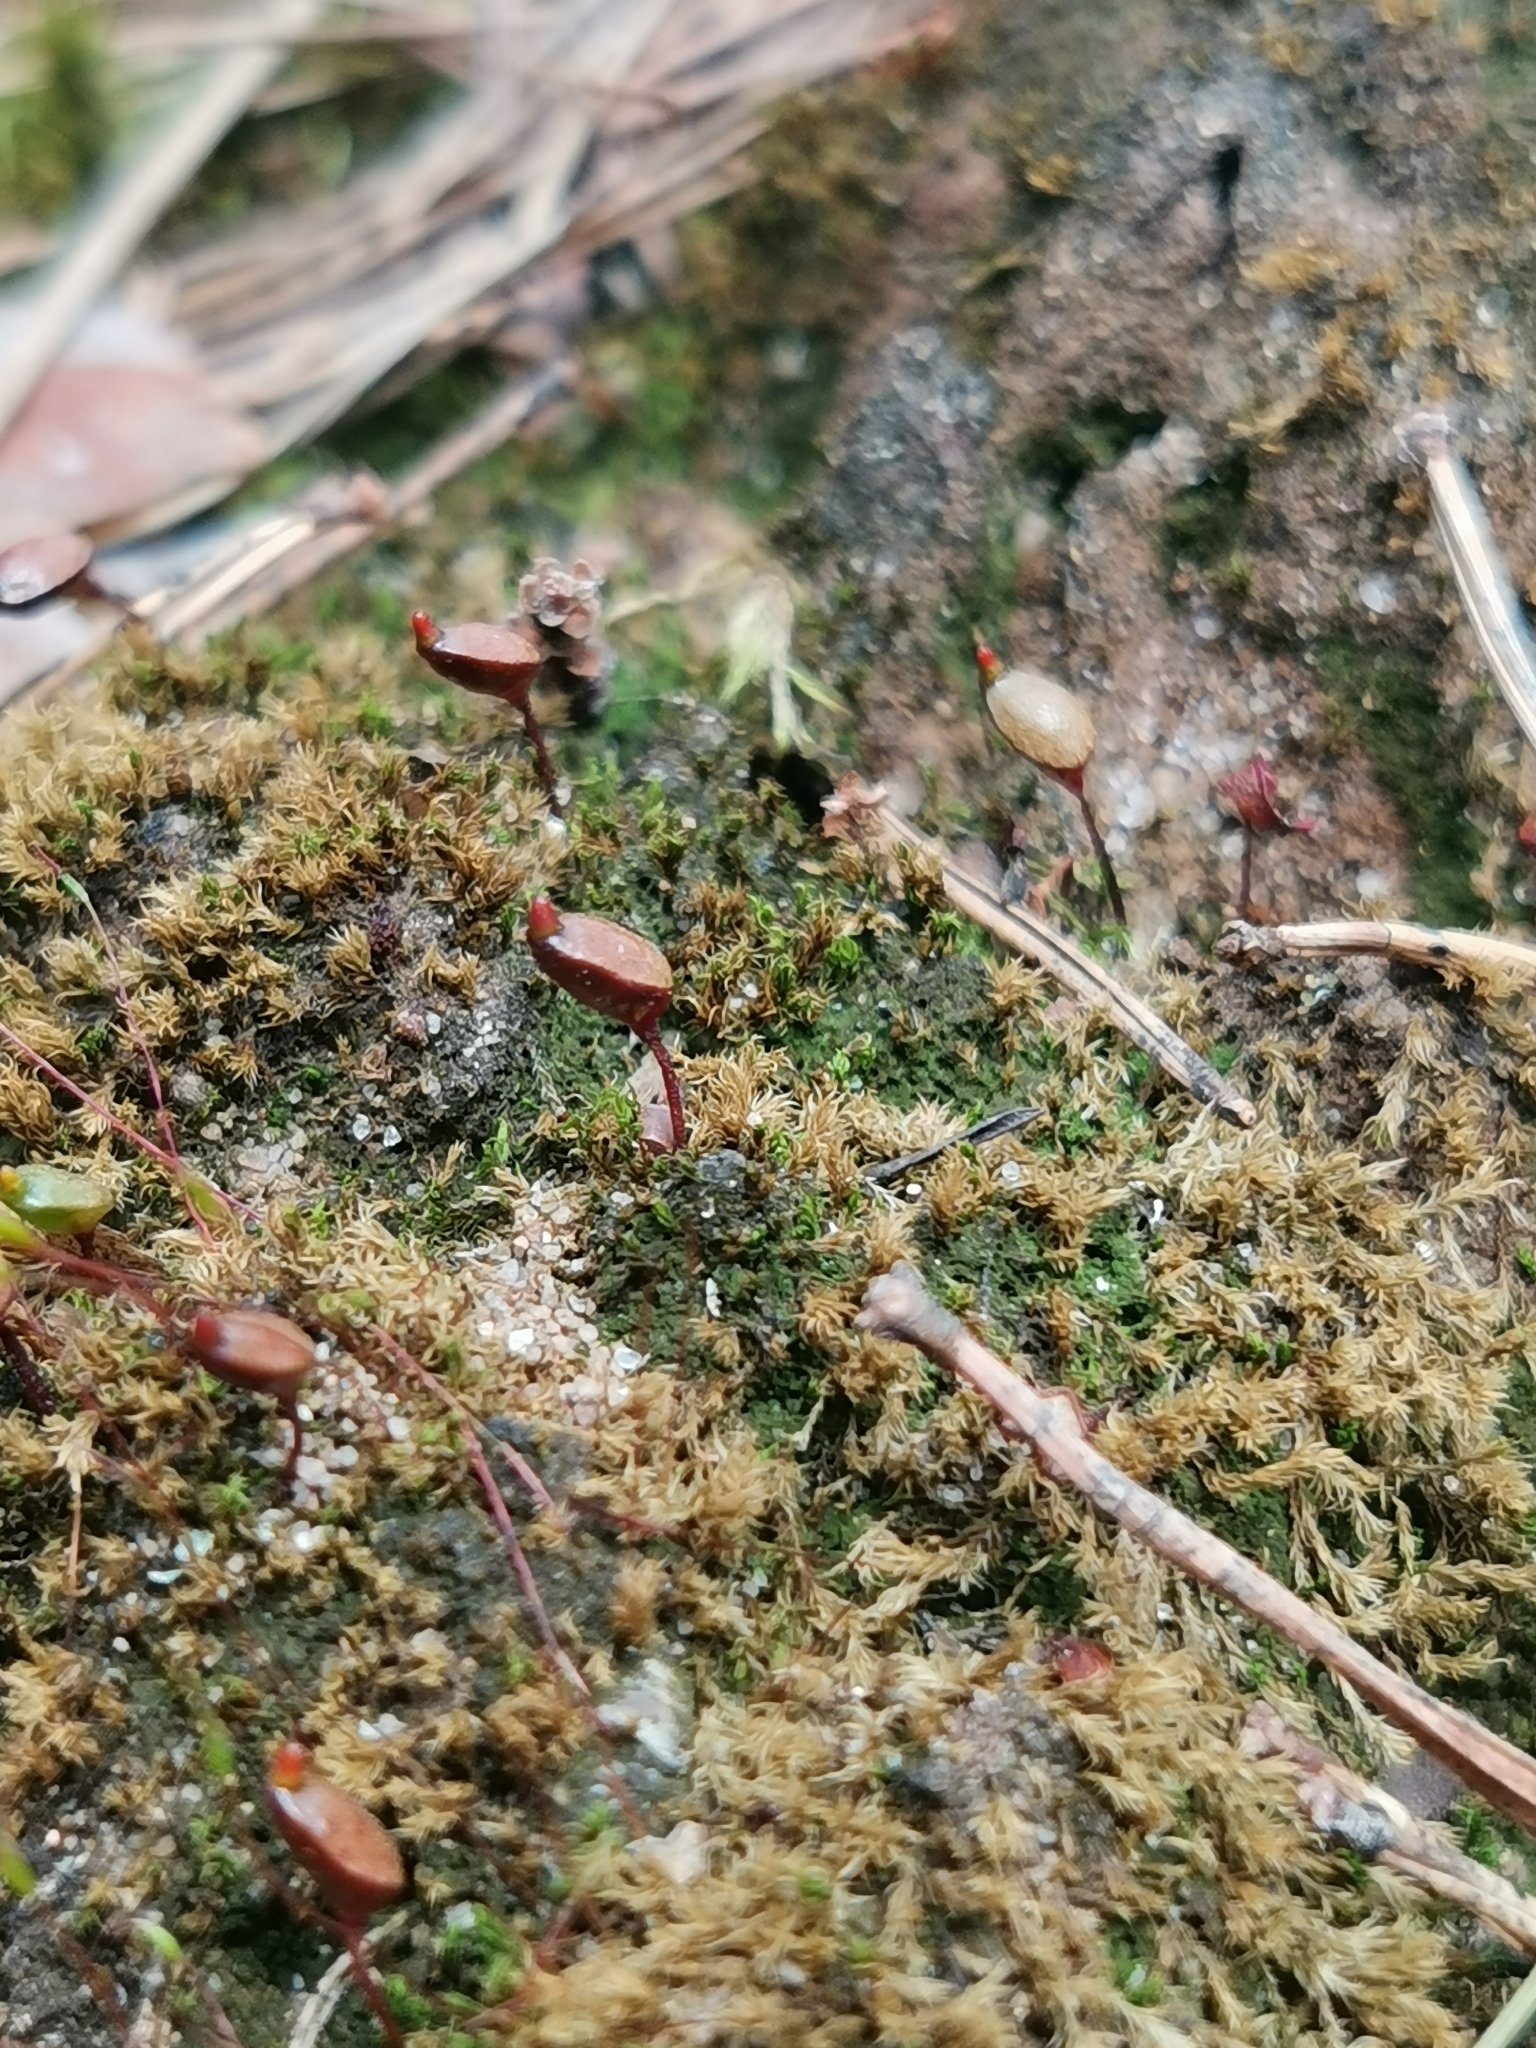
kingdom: Plantae
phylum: Bryophyta
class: Bryopsida
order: Buxbaumiales
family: Buxbaumiaceae
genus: Buxbaumia
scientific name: Buxbaumia aphylla
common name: Brown shield-moss
